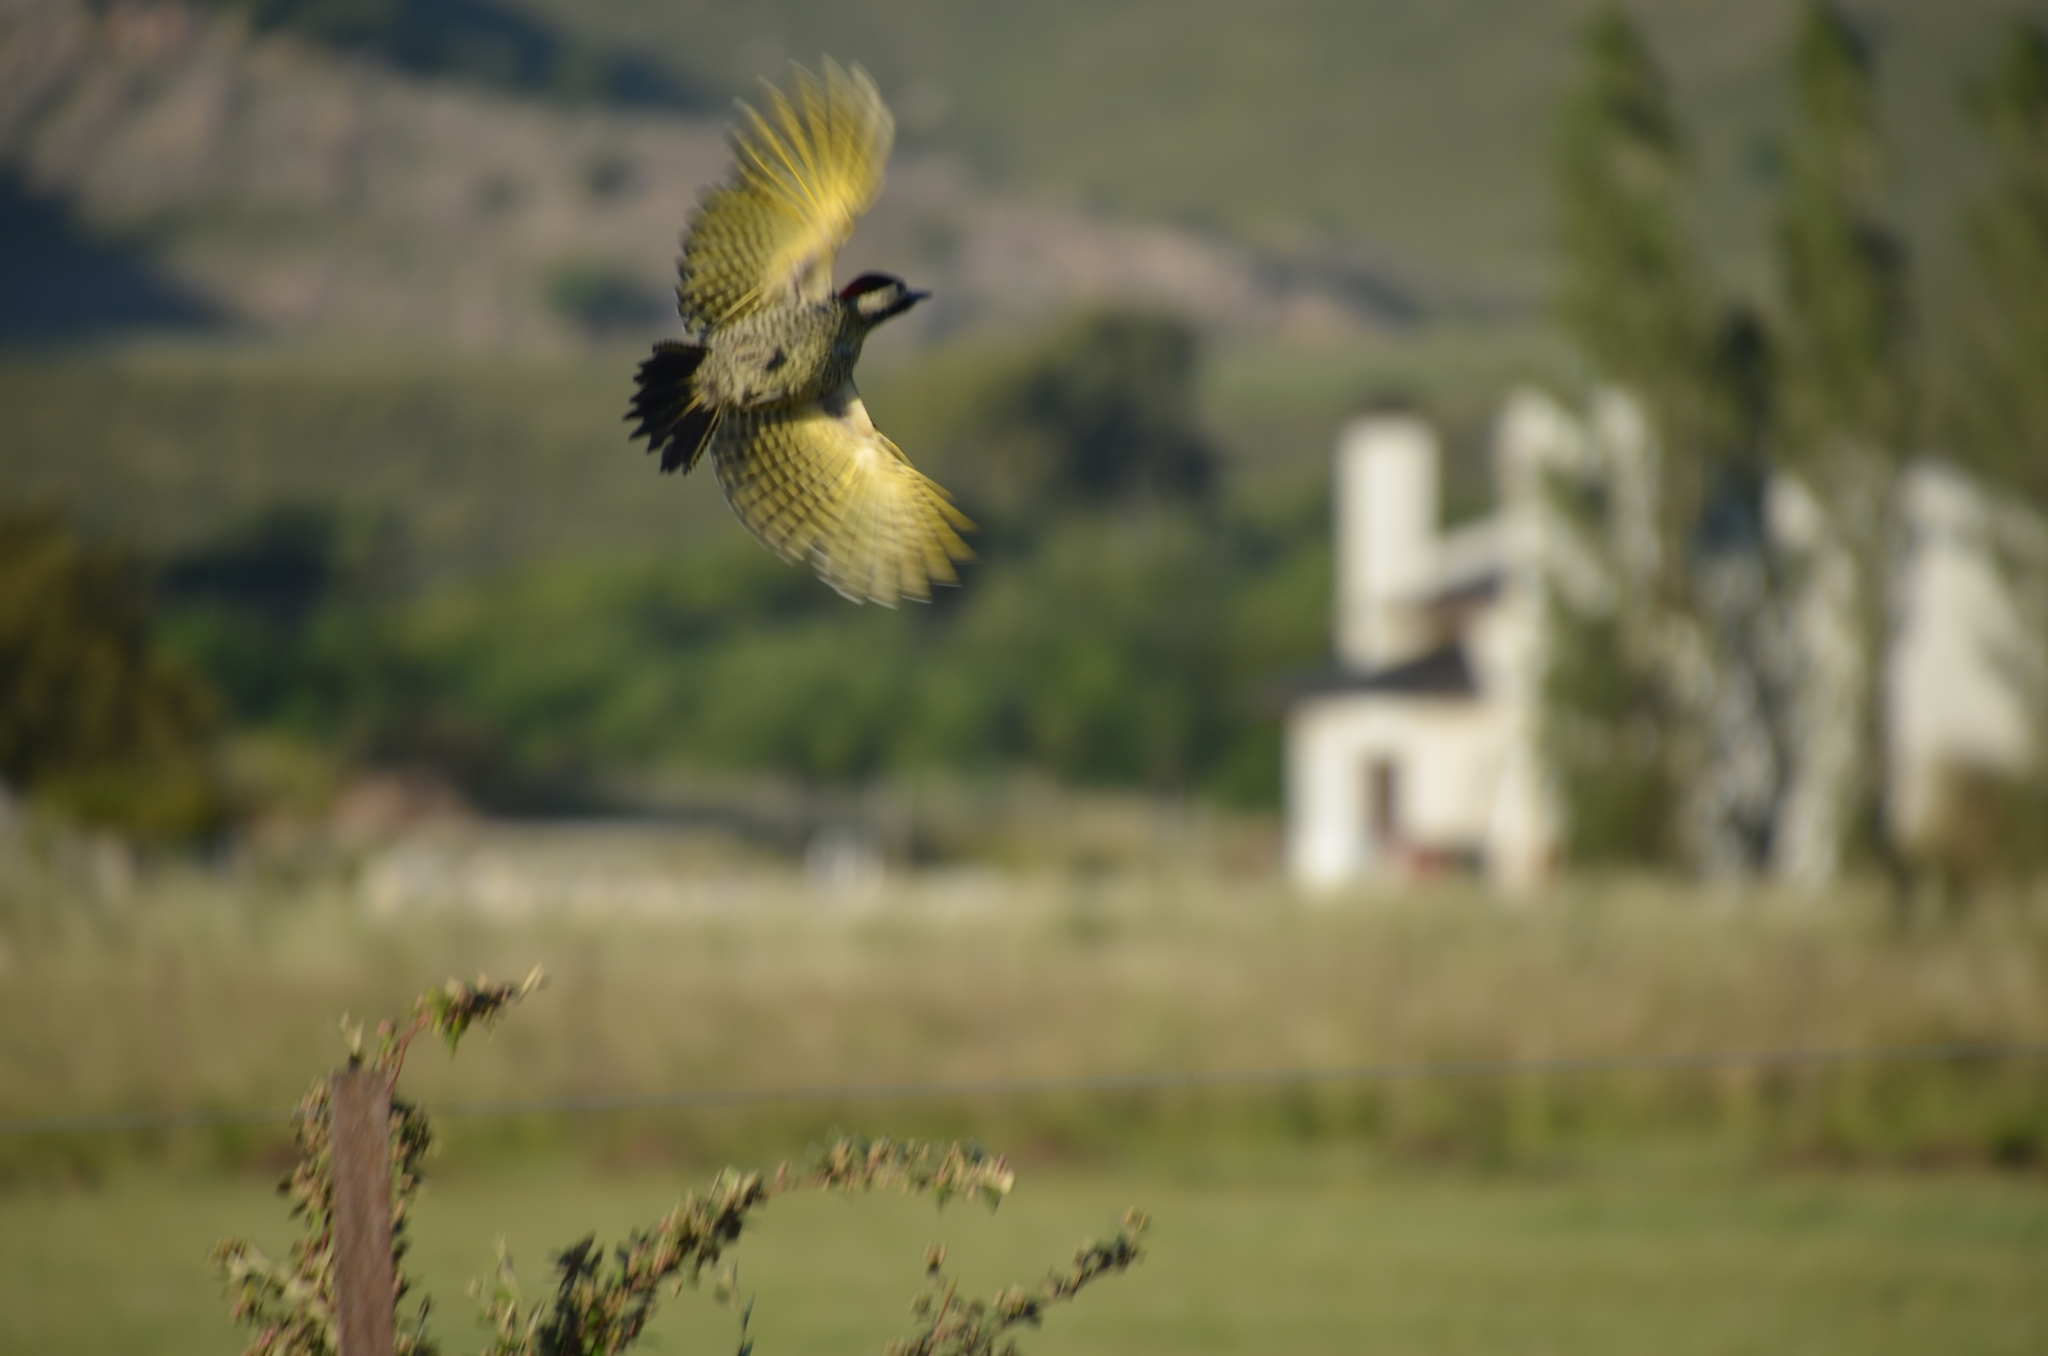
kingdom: Animalia
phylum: Chordata
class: Aves
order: Piciformes
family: Picidae
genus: Colaptes
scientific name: Colaptes melanochloros
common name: Green-barred woodpecker
